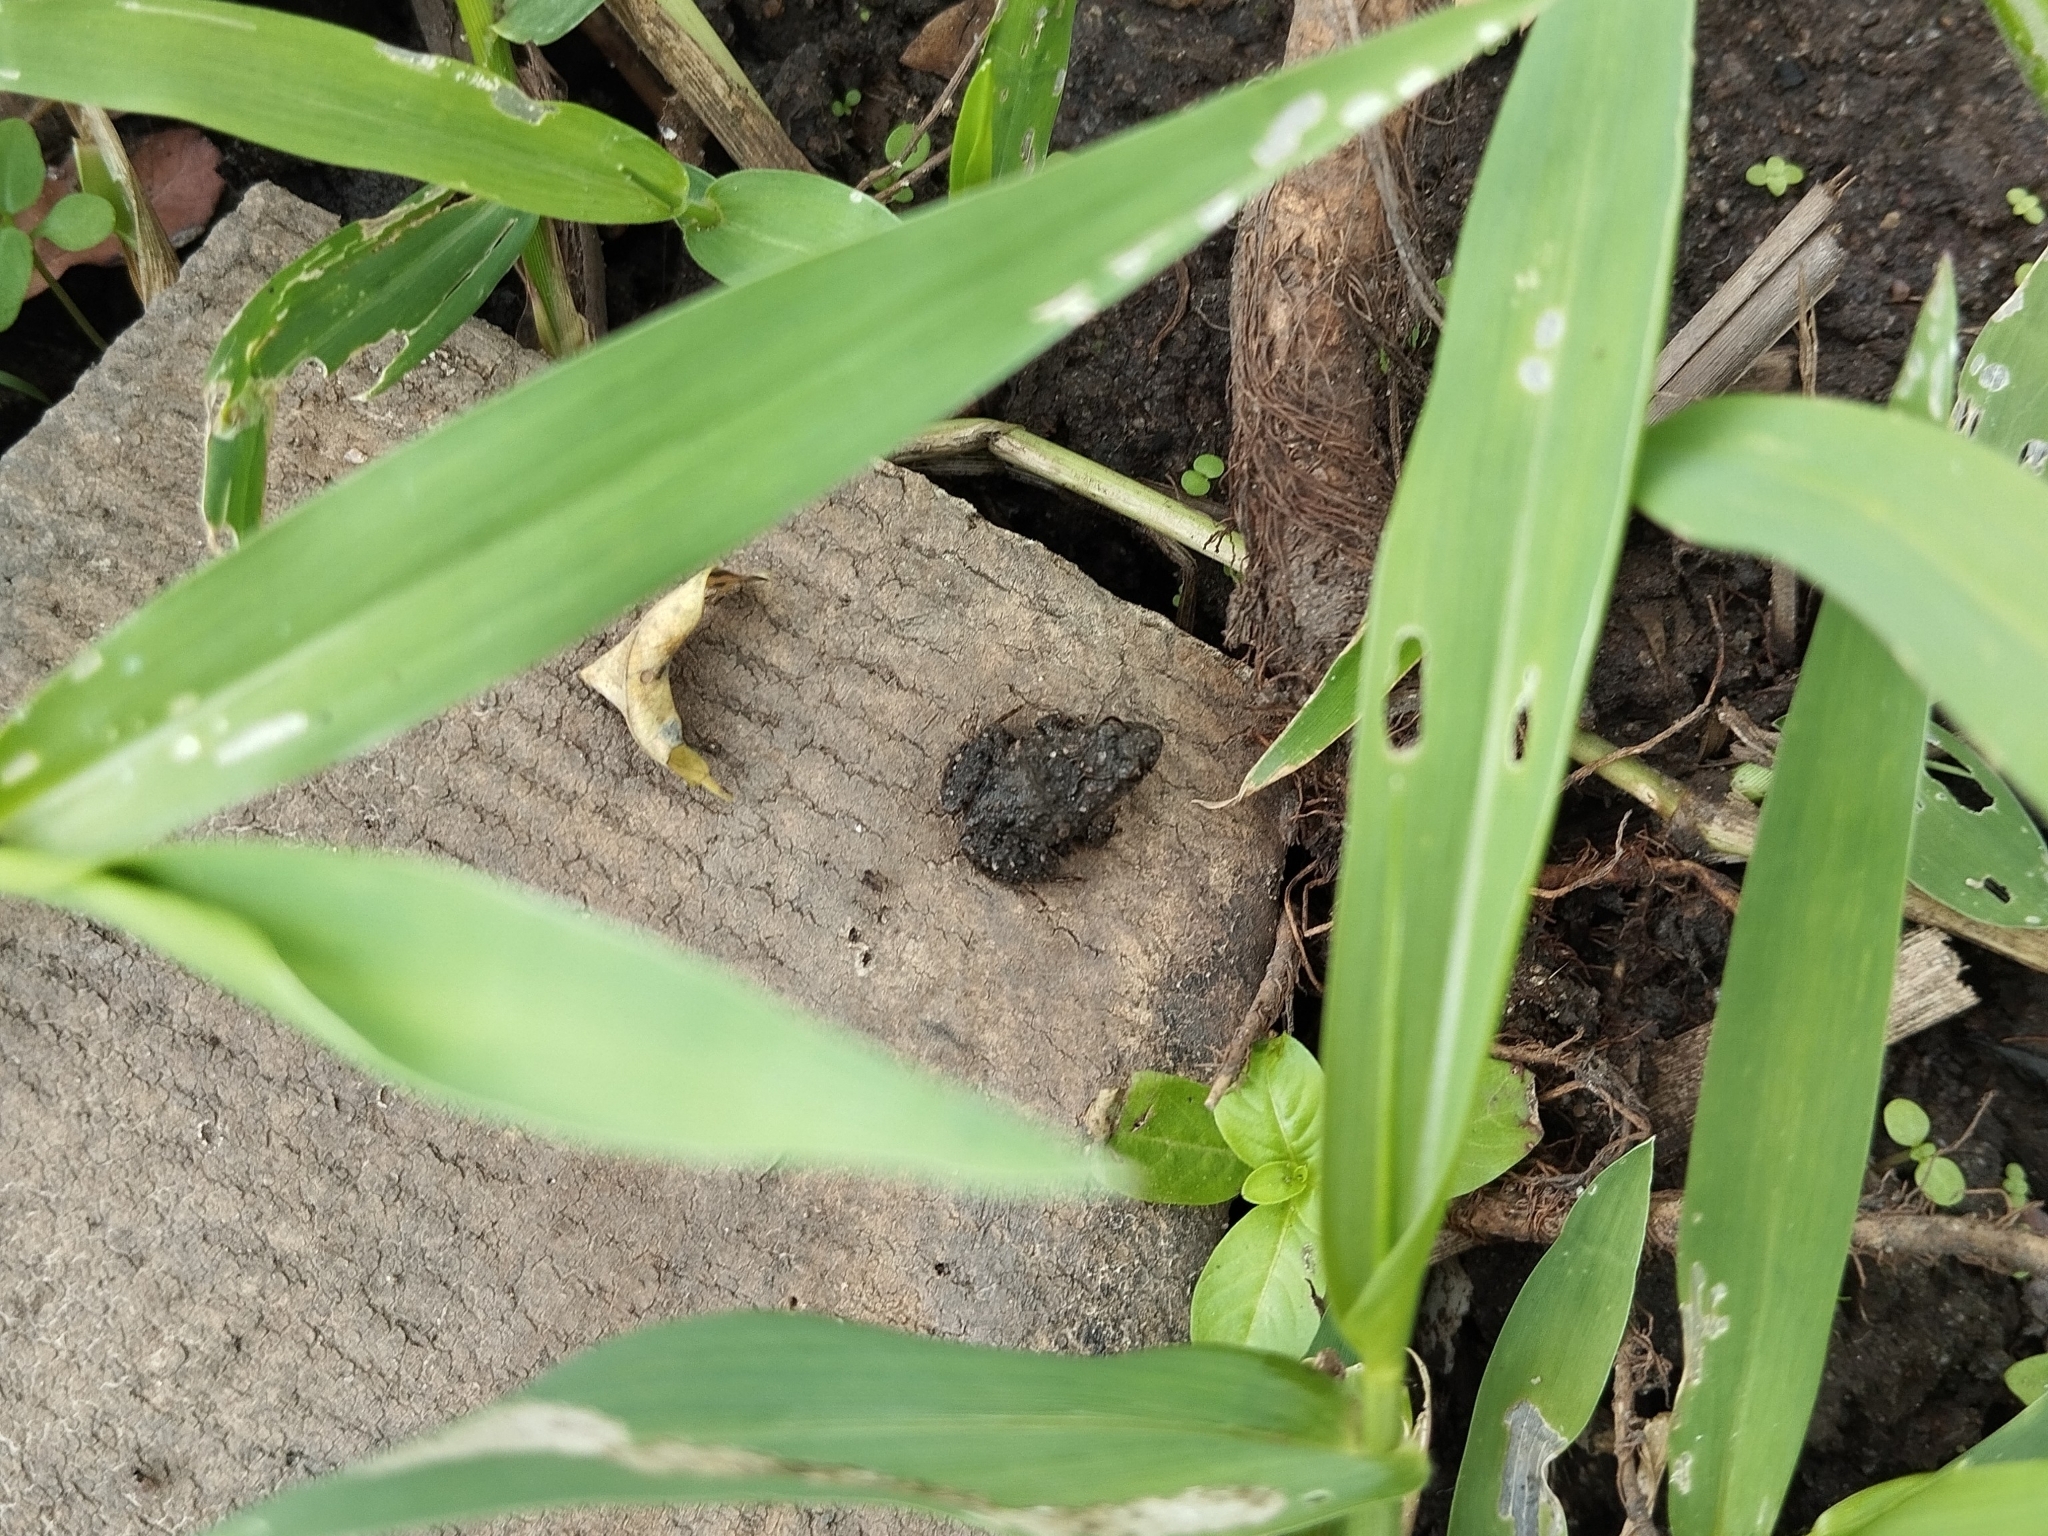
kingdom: Animalia
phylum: Chordata
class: Amphibia
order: Anura
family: Leptodactylidae
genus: Pseudopaludicola
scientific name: Pseudopaludicola restinga
